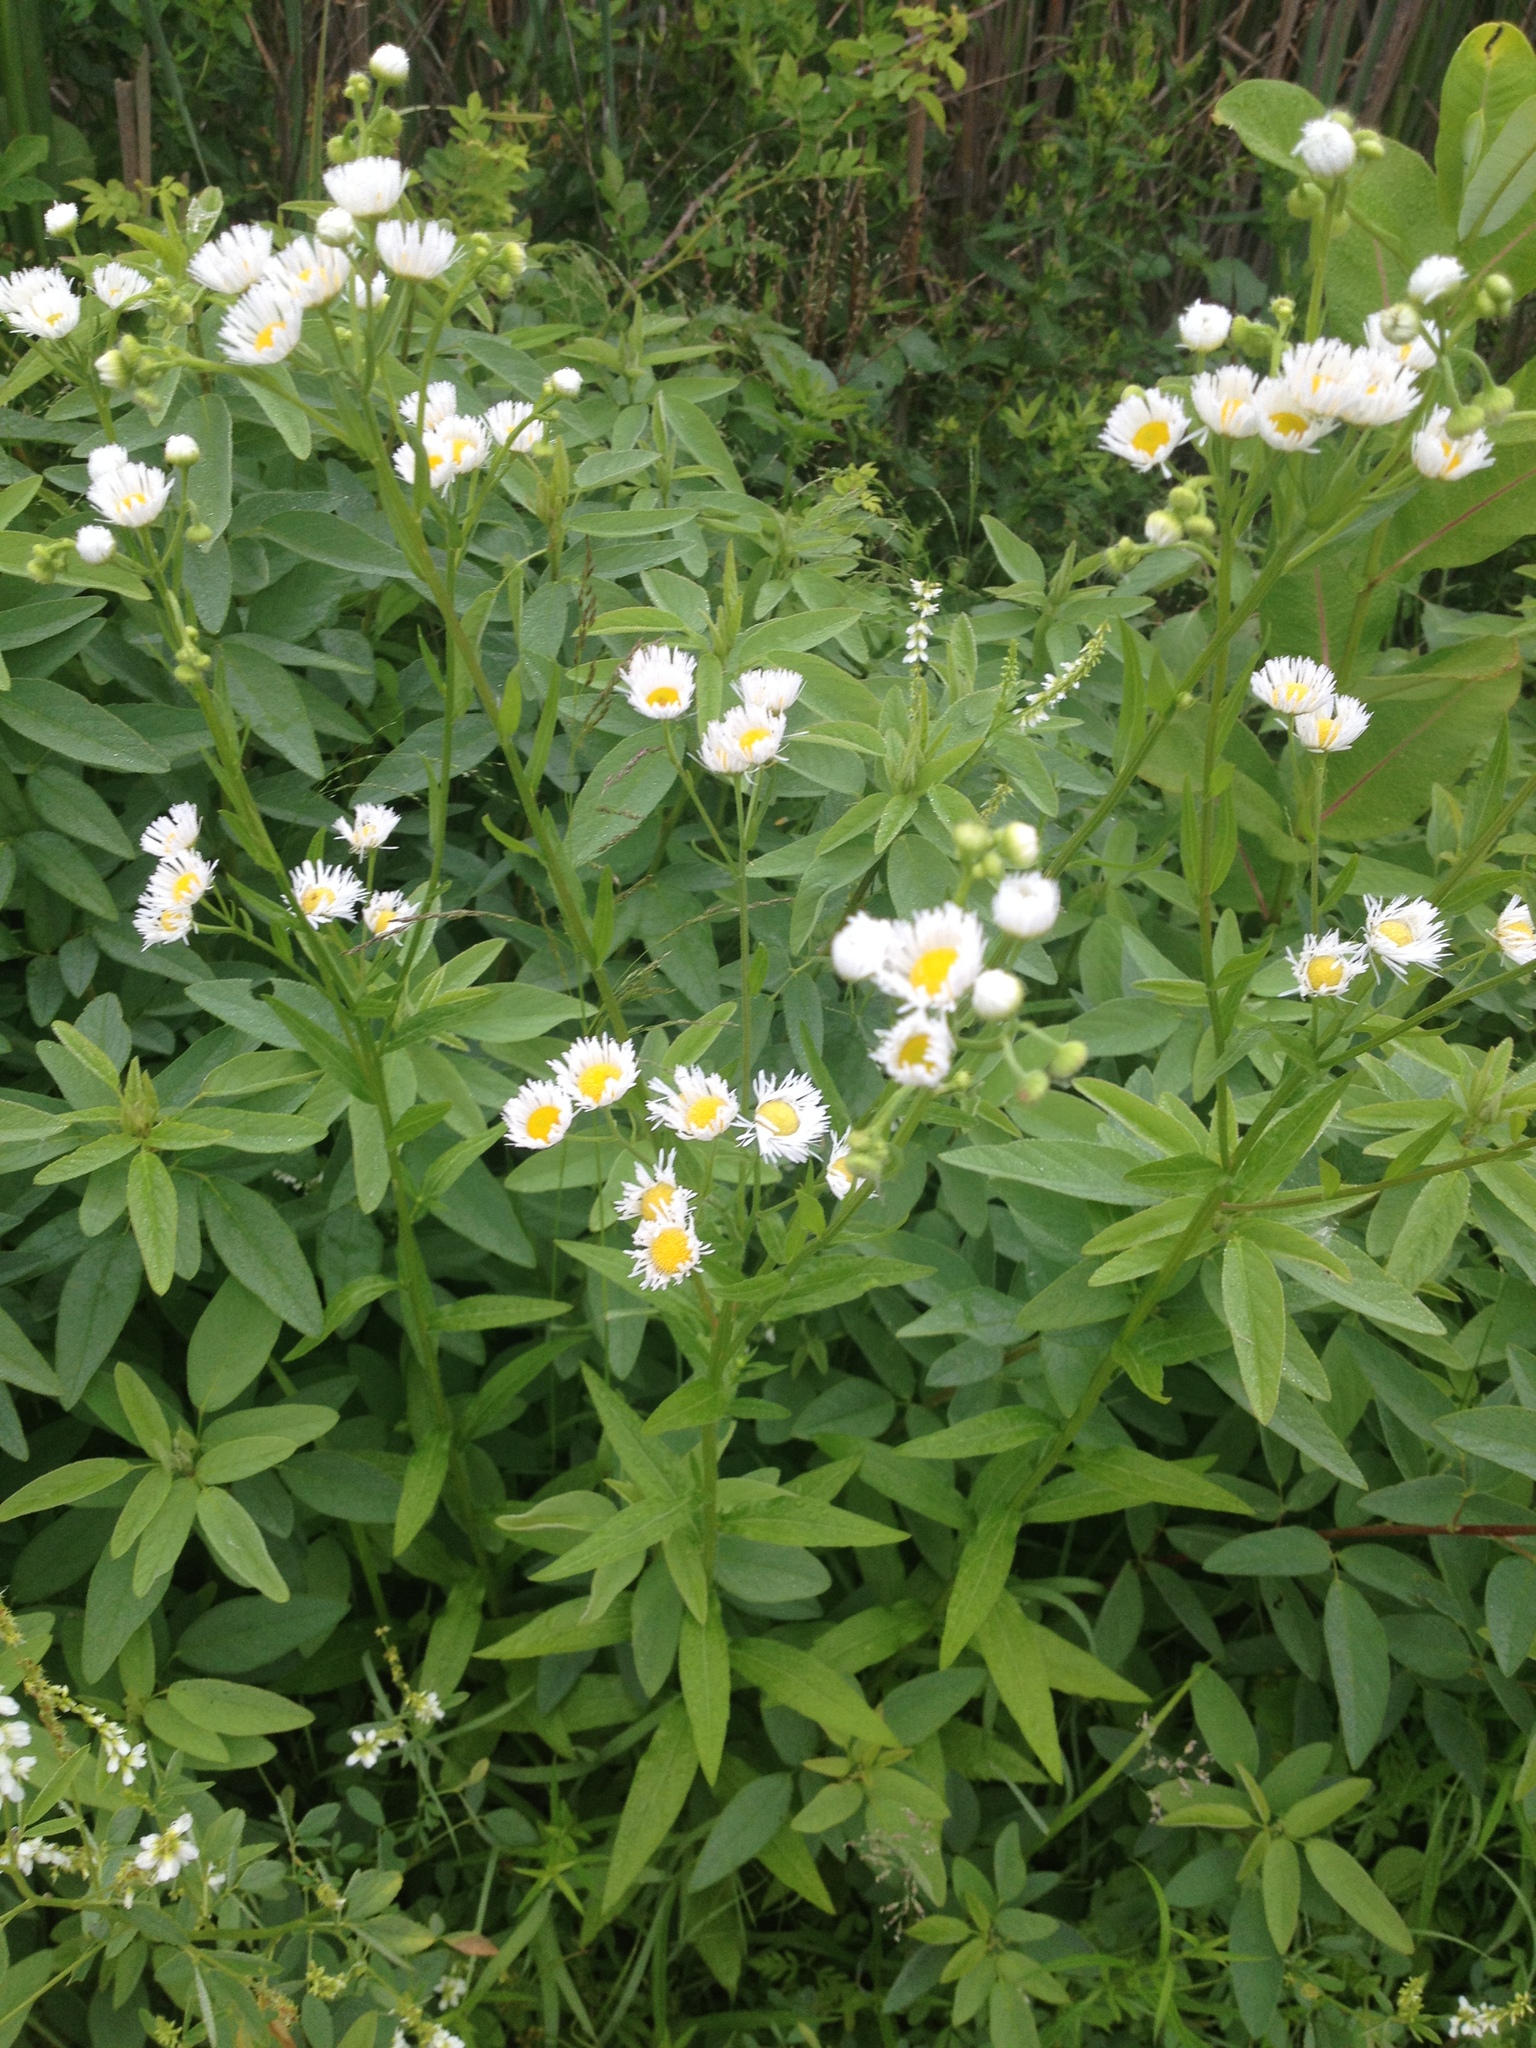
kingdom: Plantae
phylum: Tracheophyta
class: Magnoliopsida
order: Asterales
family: Asteraceae
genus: Erigeron
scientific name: Erigeron strigosus
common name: Common eastern fleabane
